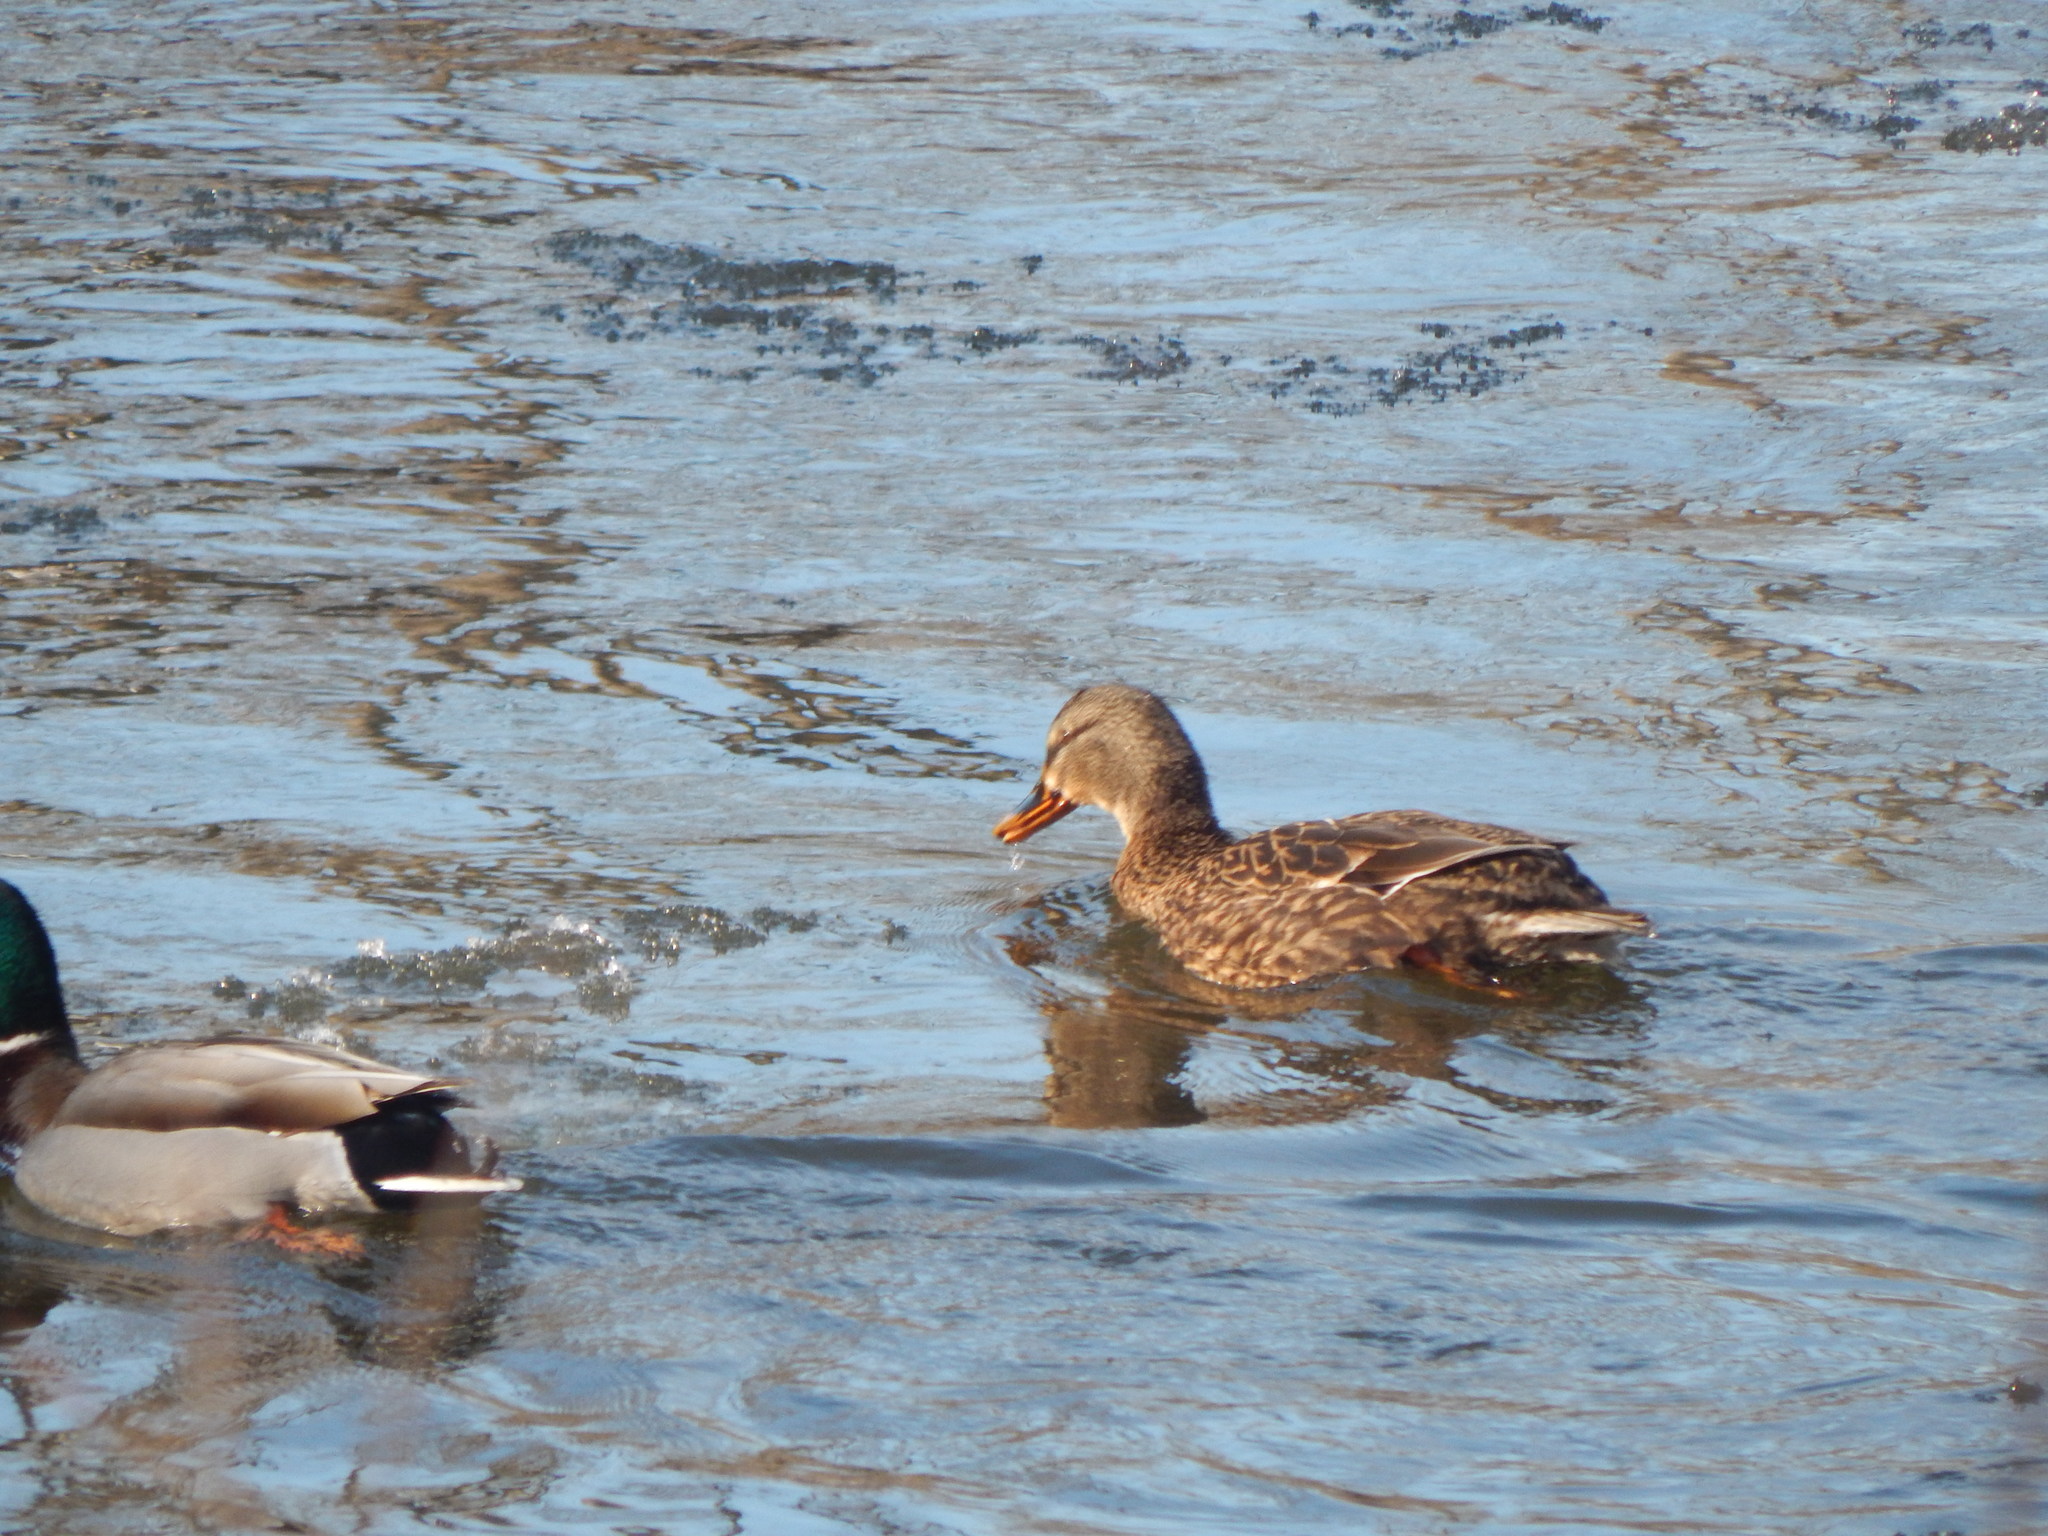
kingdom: Animalia
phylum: Chordata
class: Aves
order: Anseriformes
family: Anatidae
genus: Anas
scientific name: Anas platyrhynchos
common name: Mallard
